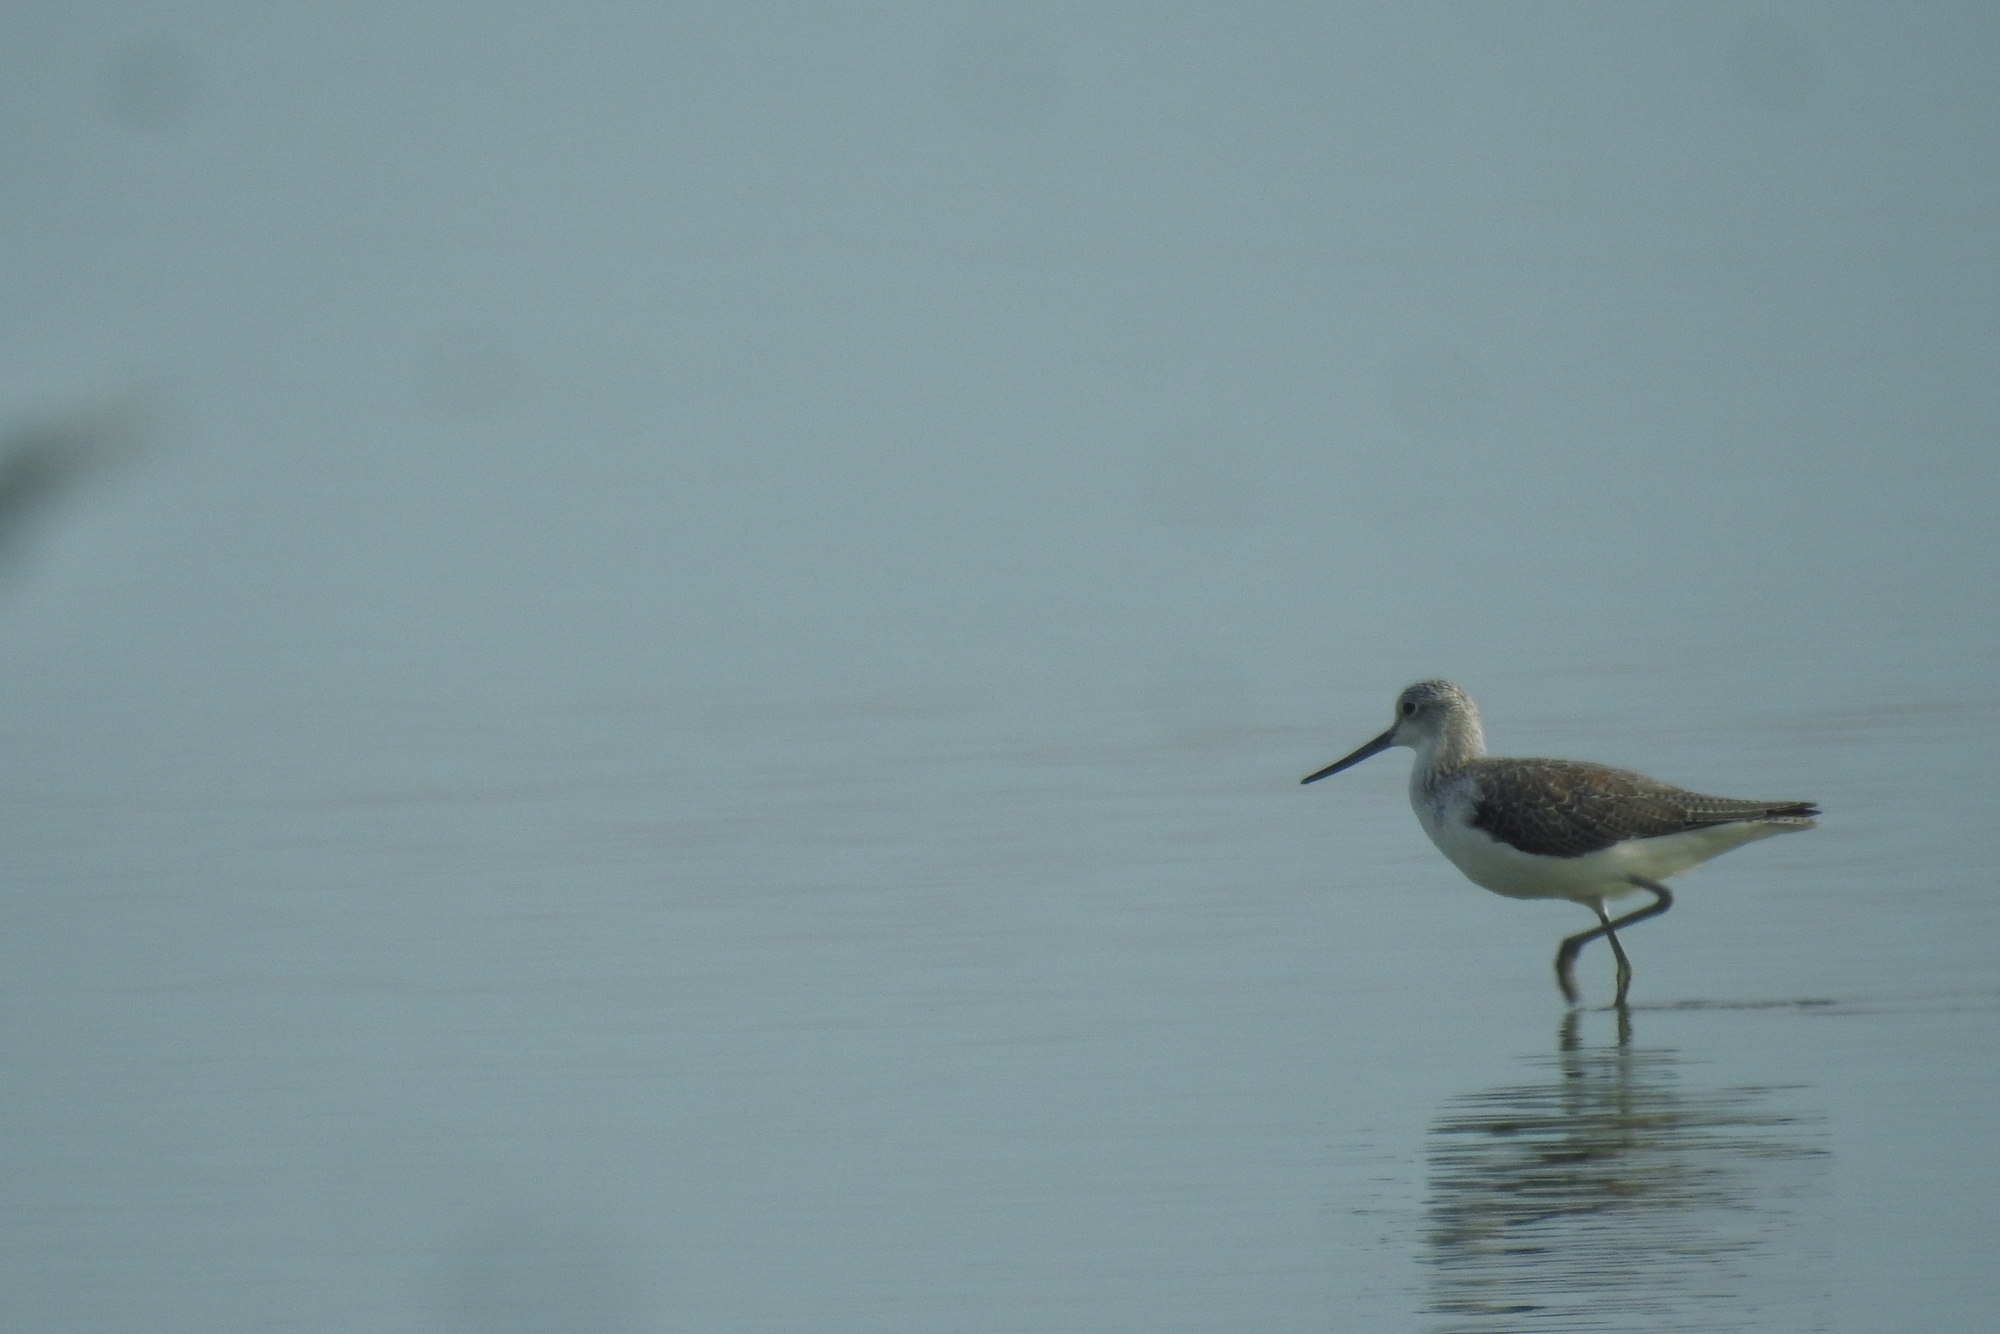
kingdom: Animalia
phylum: Chordata
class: Aves
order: Charadriiformes
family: Scolopacidae
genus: Tringa
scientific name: Tringa nebularia
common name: Common greenshank
